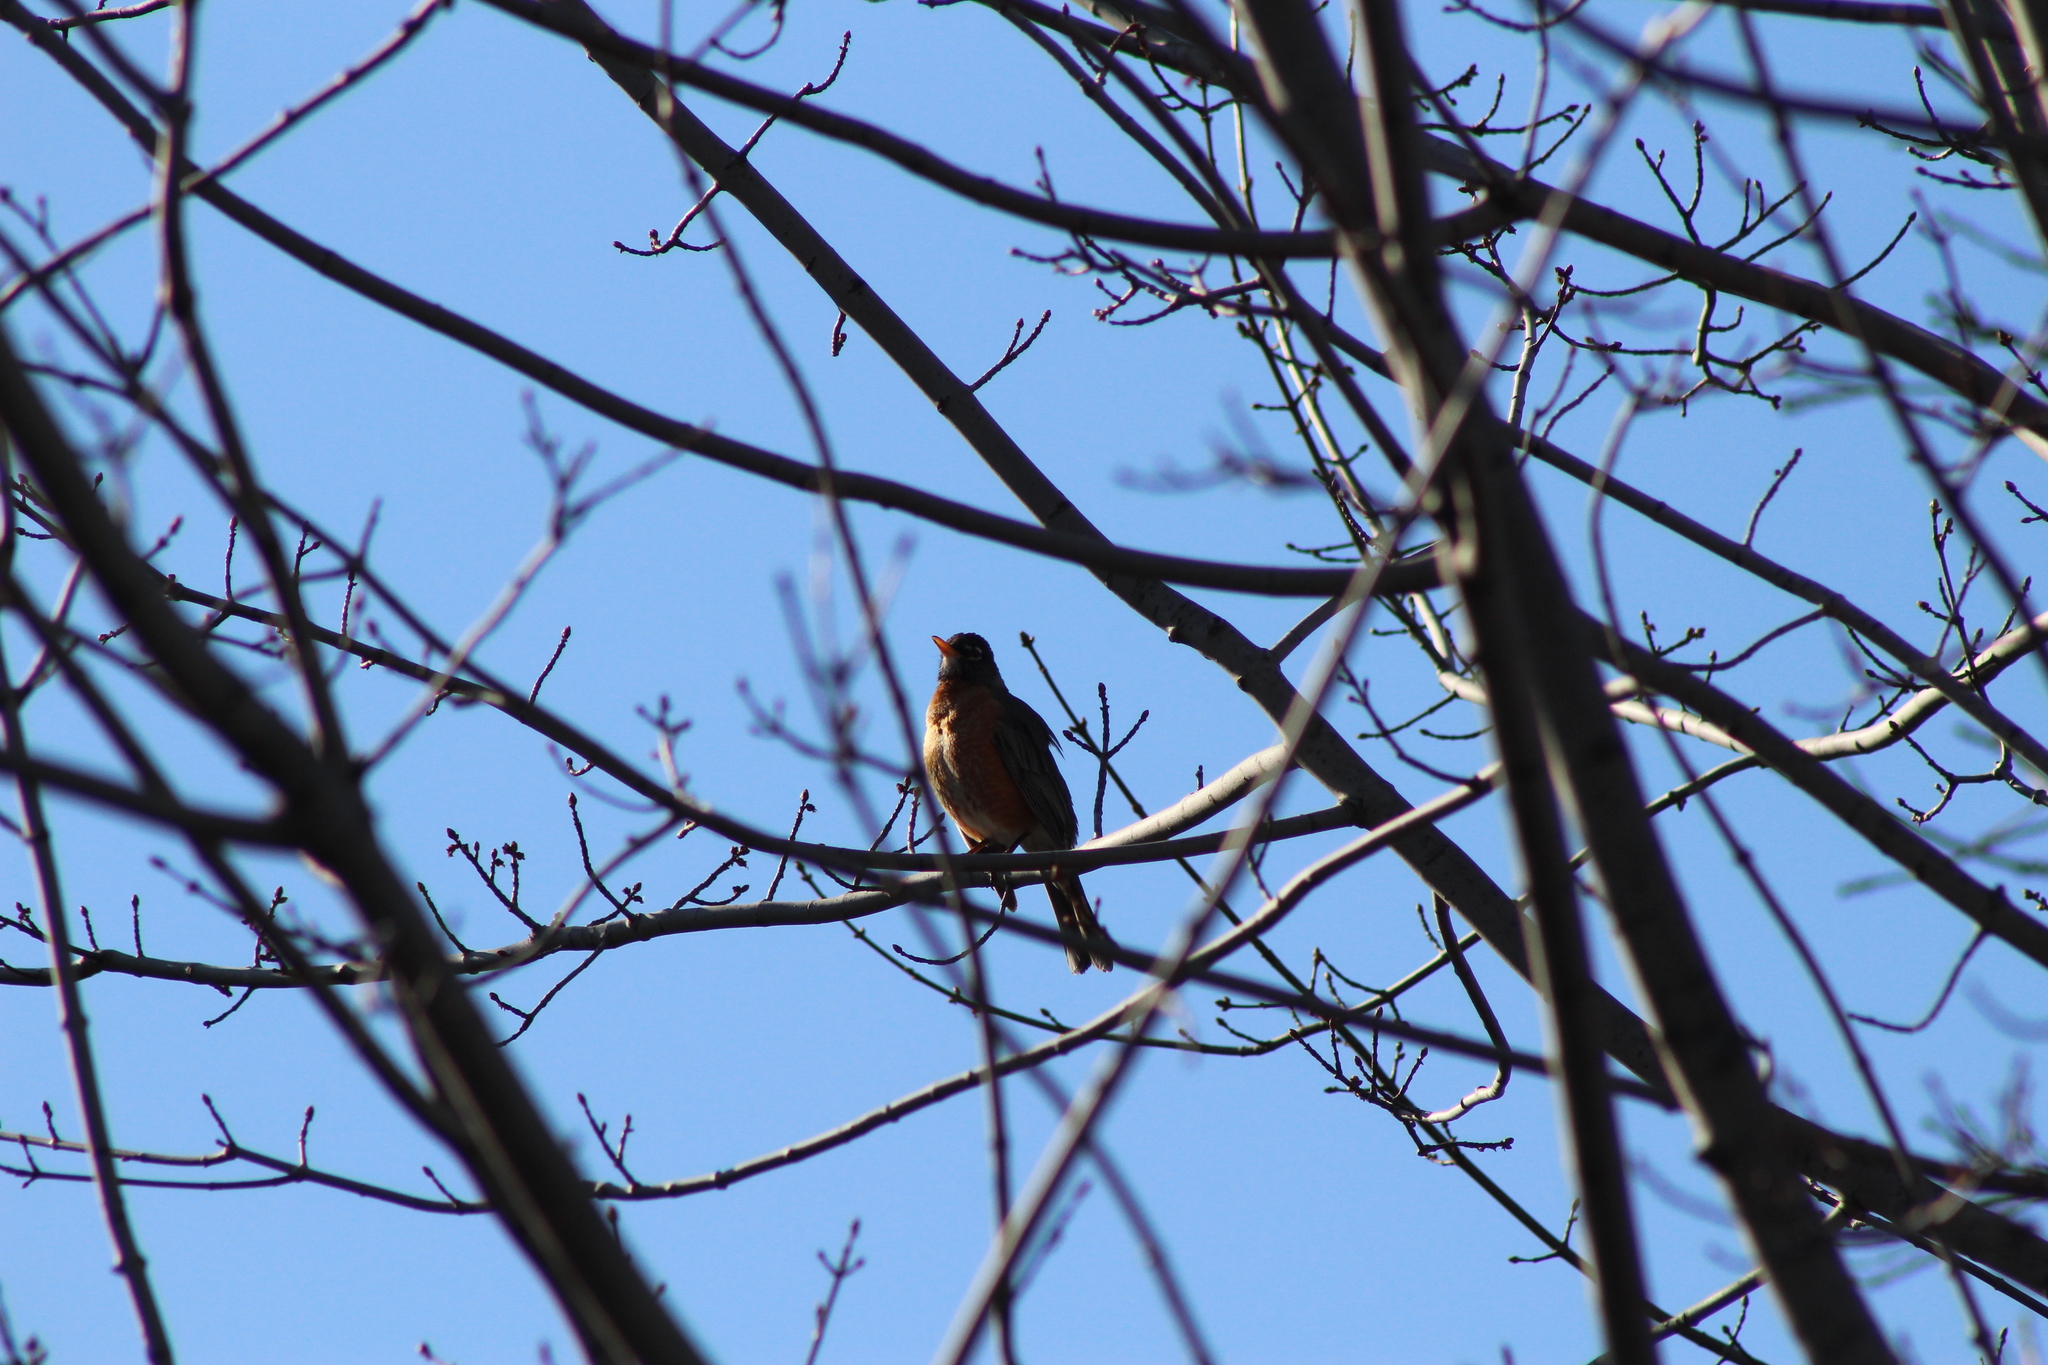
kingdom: Animalia
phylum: Chordata
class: Aves
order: Passeriformes
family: Turdidae
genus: Turdus
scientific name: Turdus migratorius
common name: American robin
